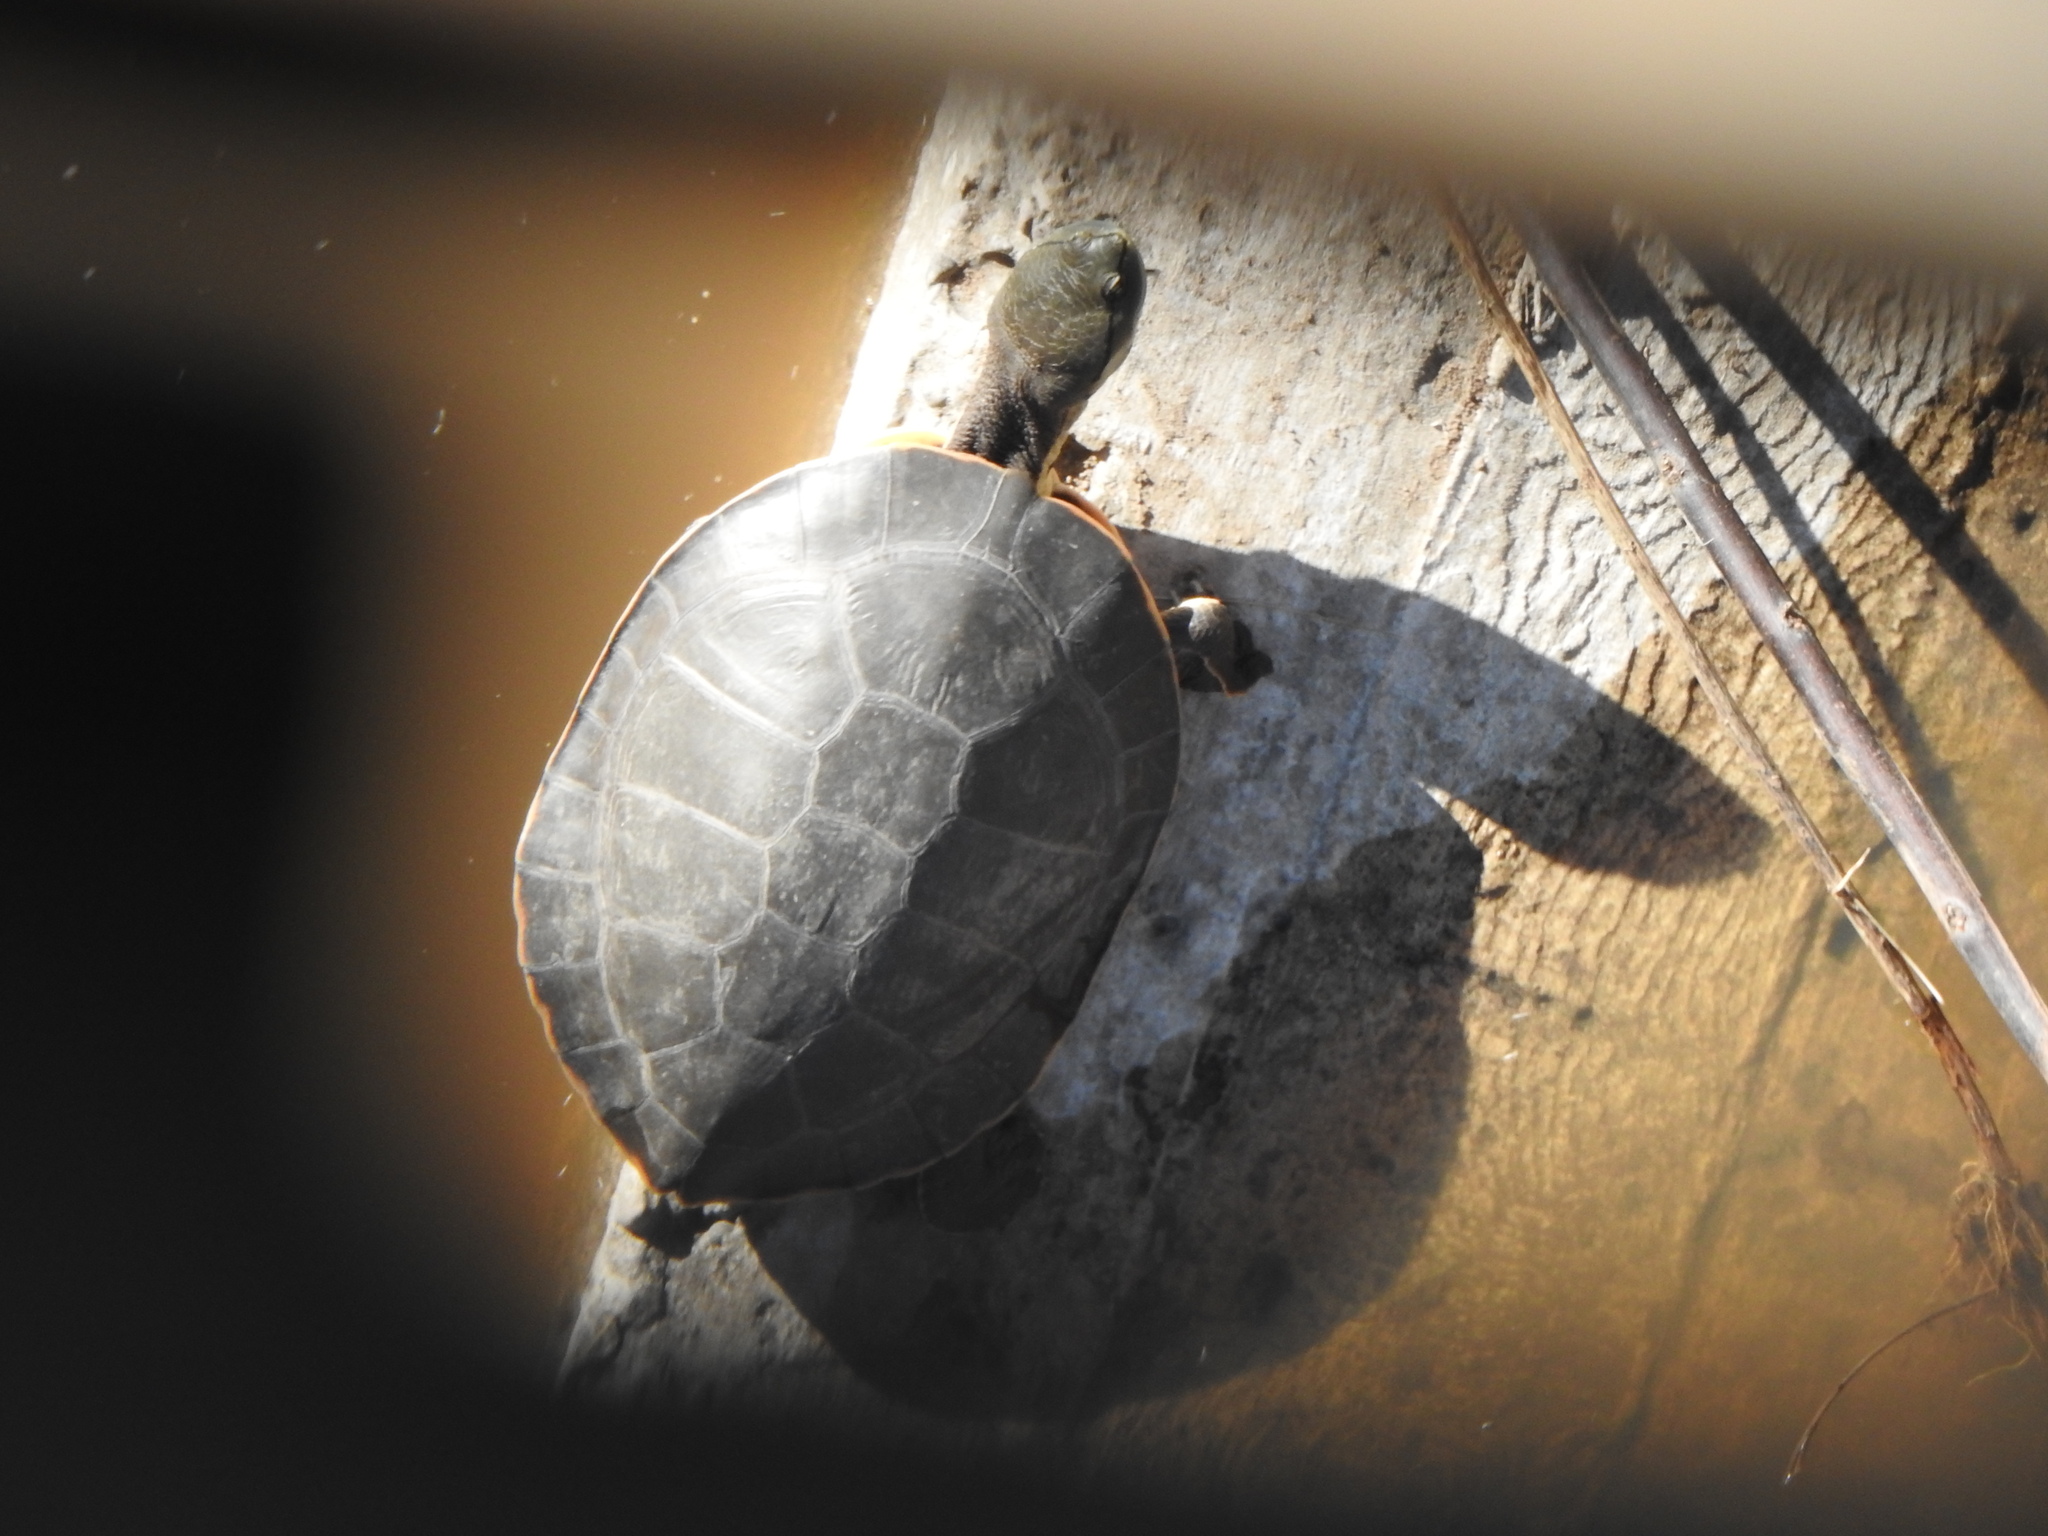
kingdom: Animalia
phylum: Chordata
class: Testudines
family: Chelidae
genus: Phrynops
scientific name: Phrynops hilarii
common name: Side-necked turtle of saint hillaire
